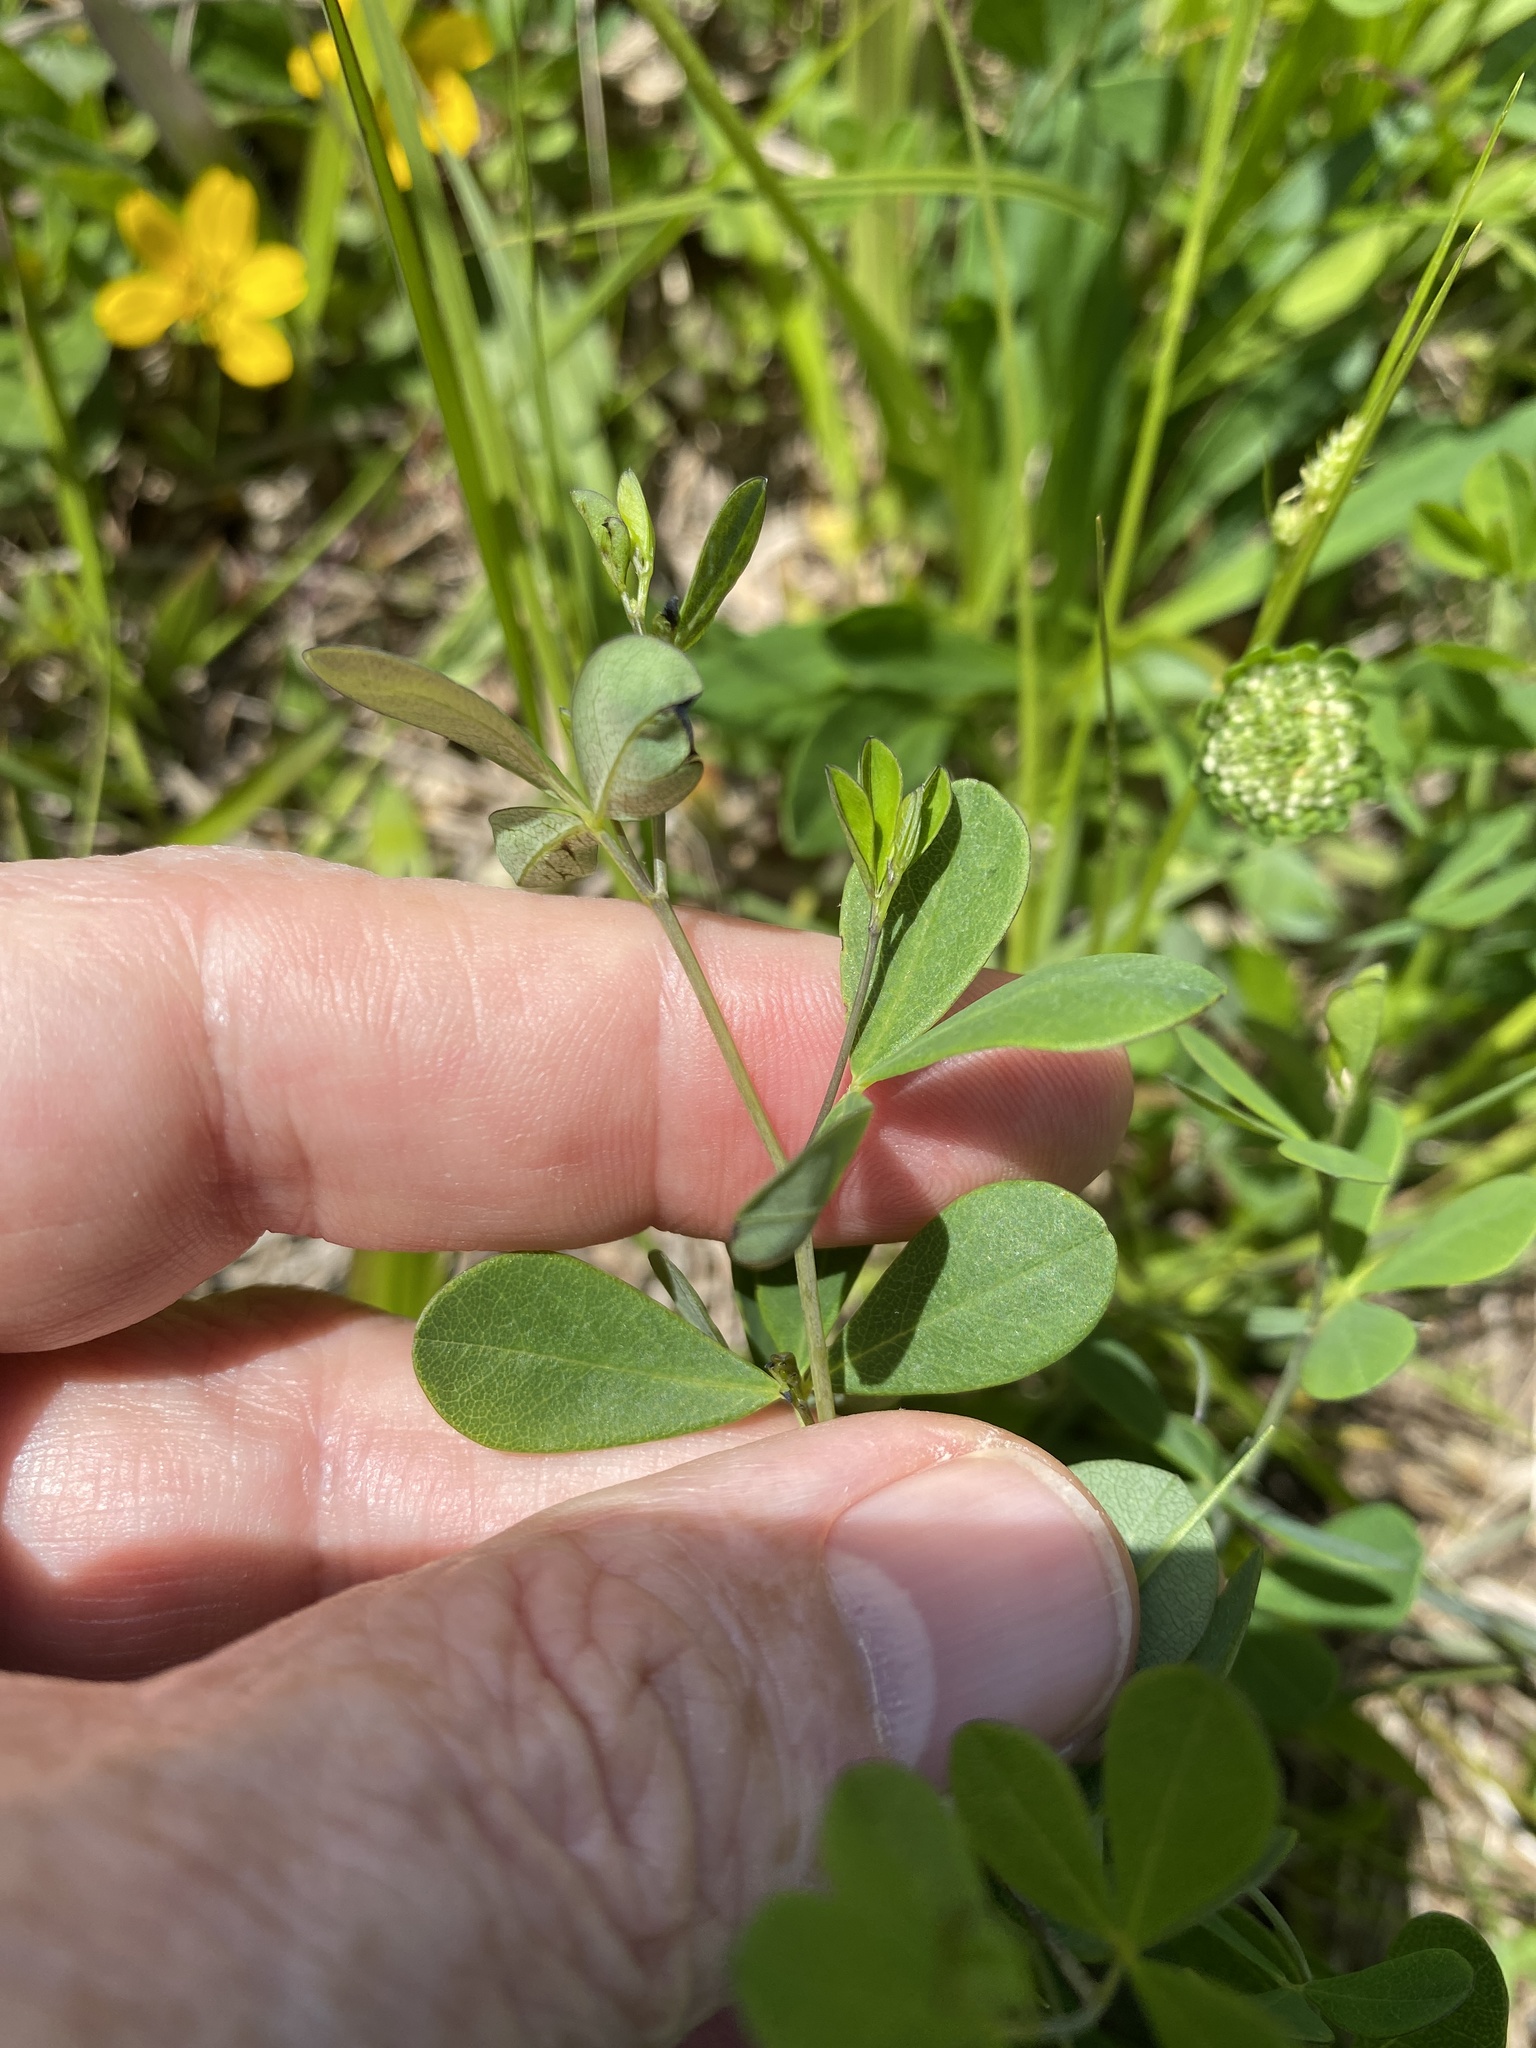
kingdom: Plantae
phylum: Tracheophyta
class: Magnoliopsida
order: Fabales
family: Fabaceae
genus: Baptisia
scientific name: Baptisia tinctoria
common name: Wild indigo
